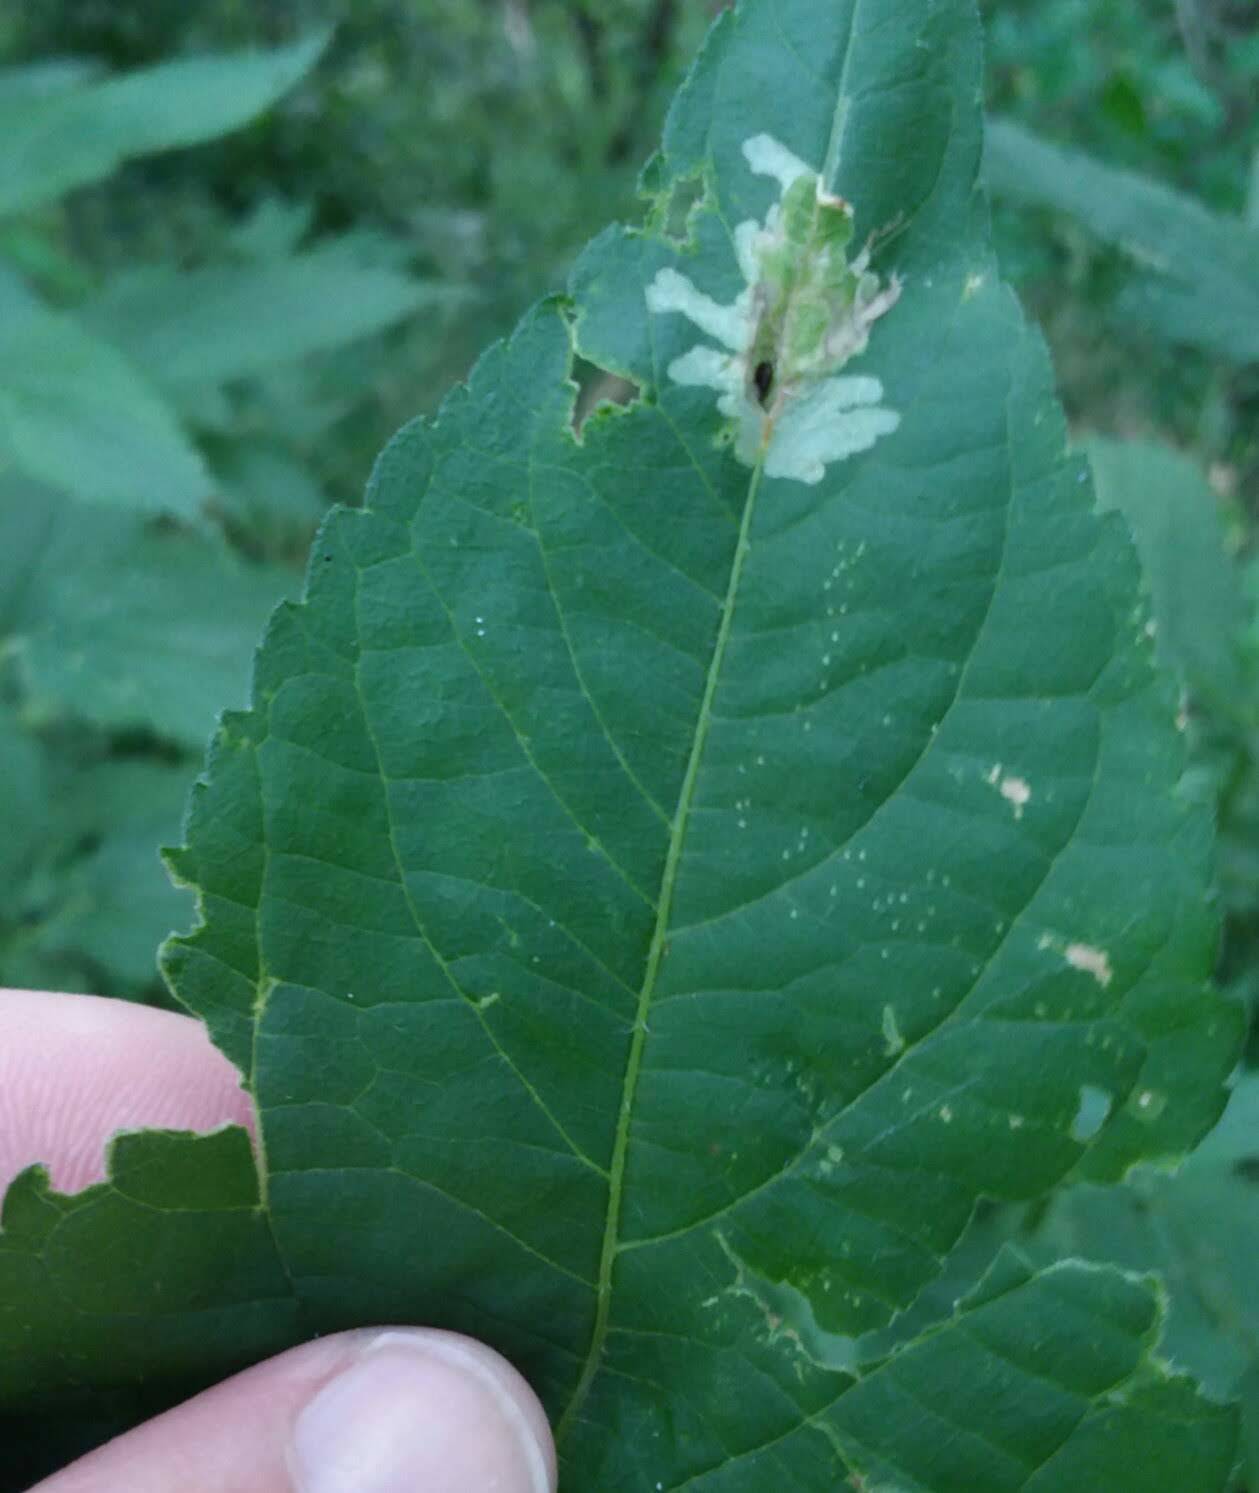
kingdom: Animalia
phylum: Arthropoda
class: Insecta
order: Diptera
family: Agromyzidae
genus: Calycomyza
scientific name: Calycomyza platyptera
